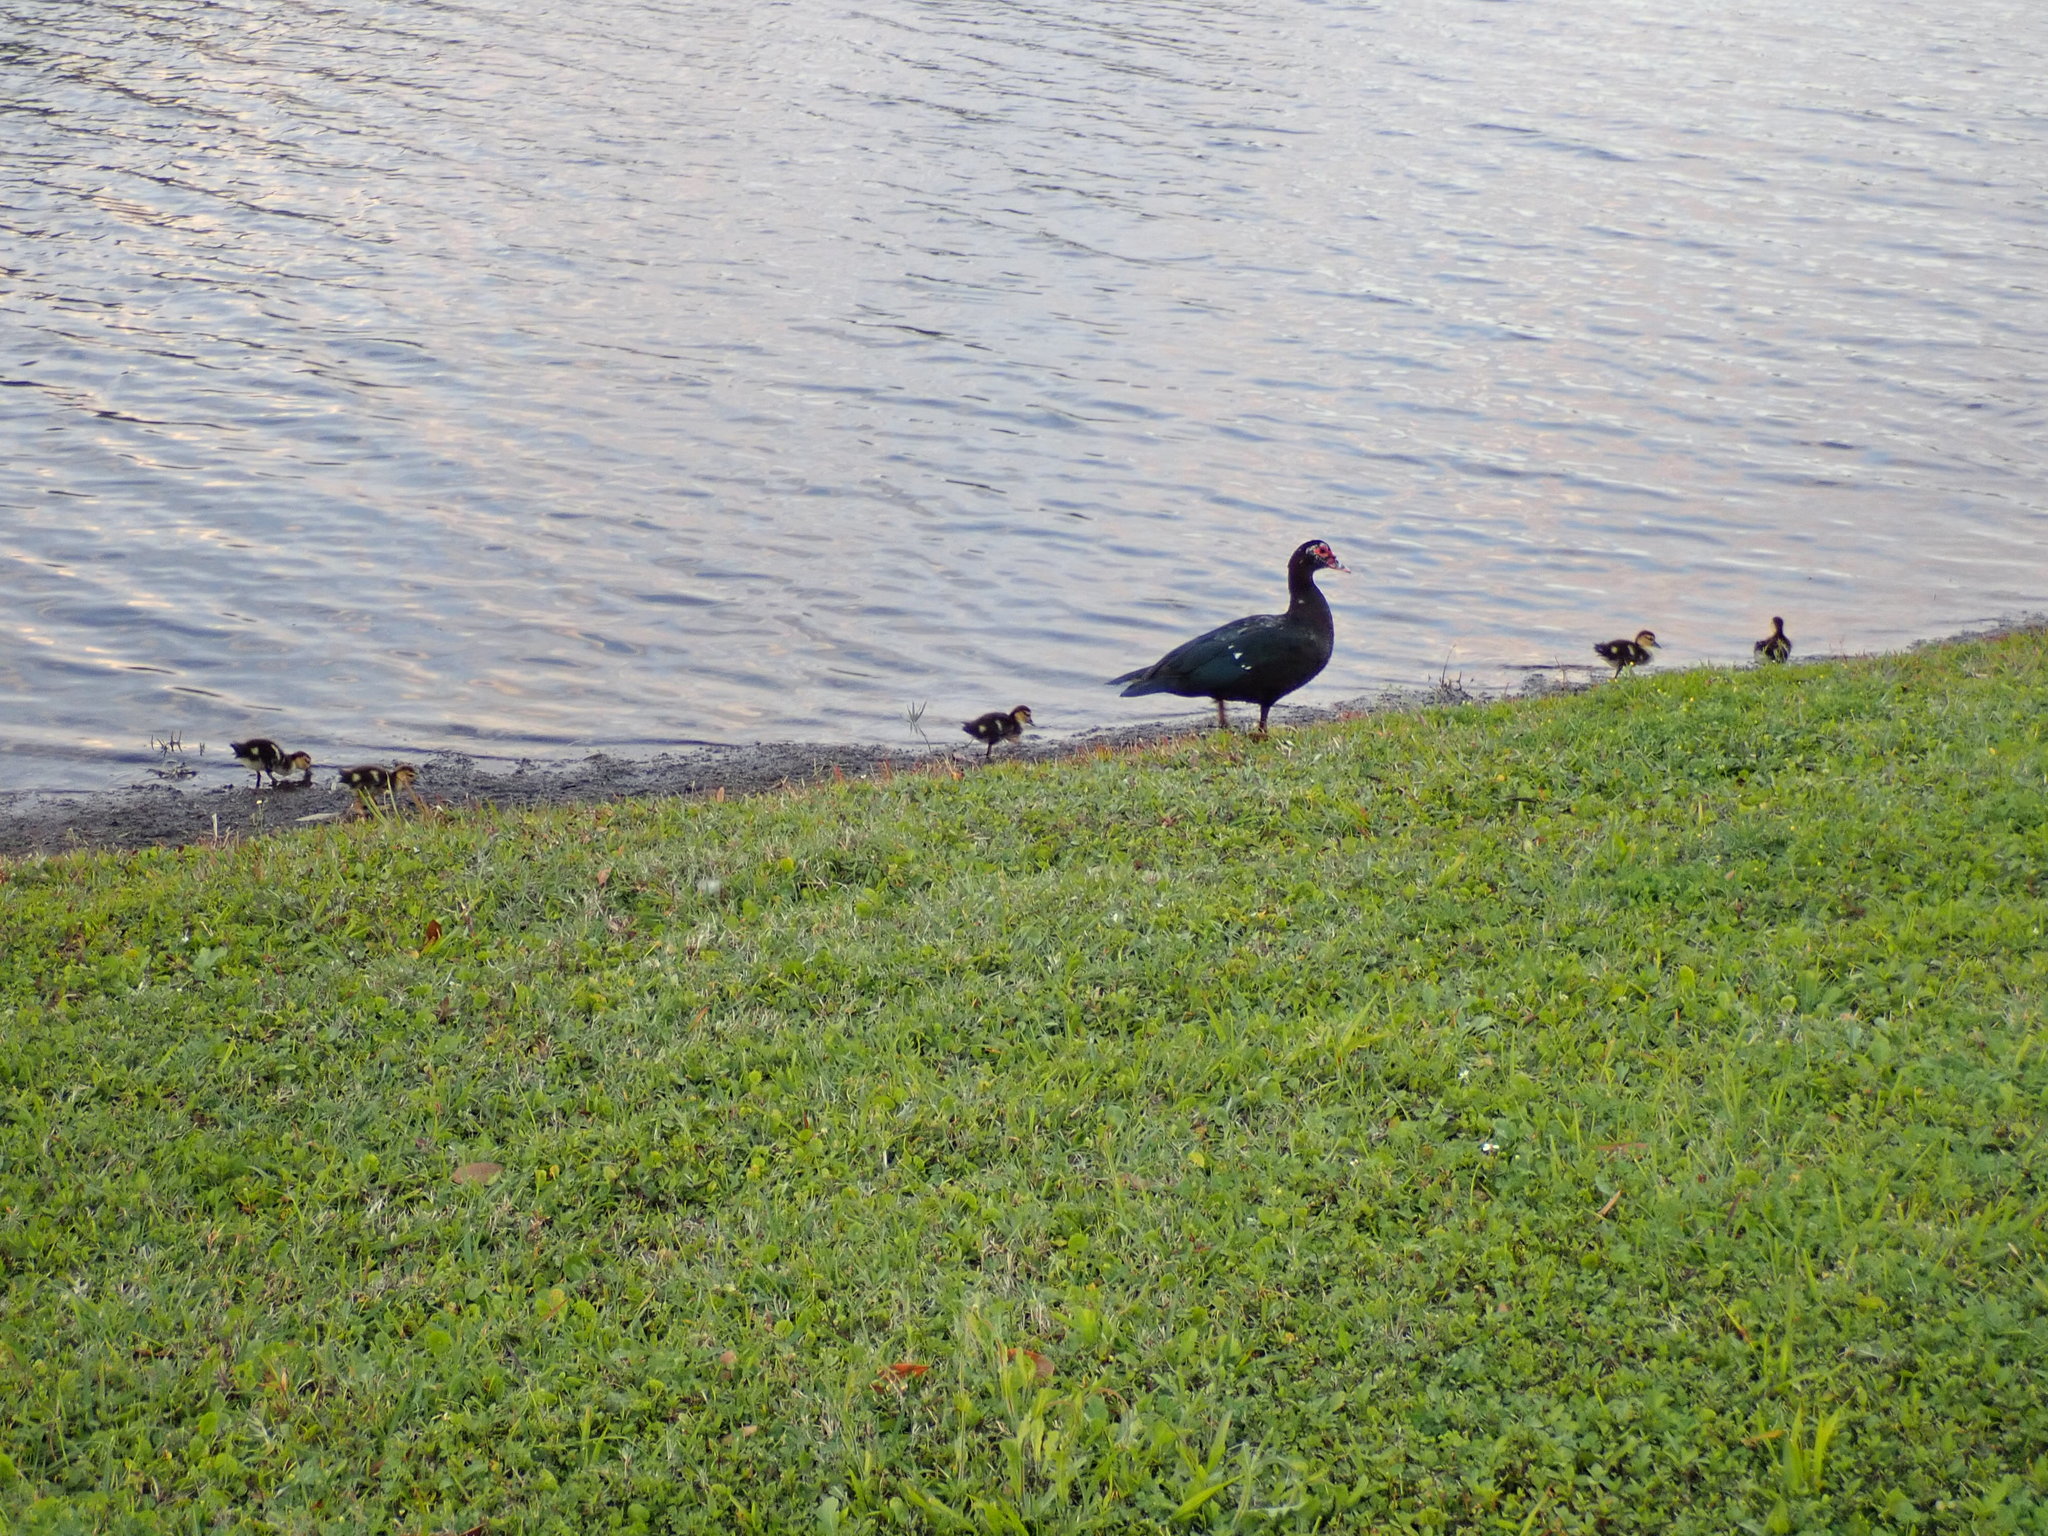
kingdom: Animalia
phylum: Chordata
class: Aves
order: Anseriformes
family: Anatidae
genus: Cairina
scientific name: Cairina moschata
